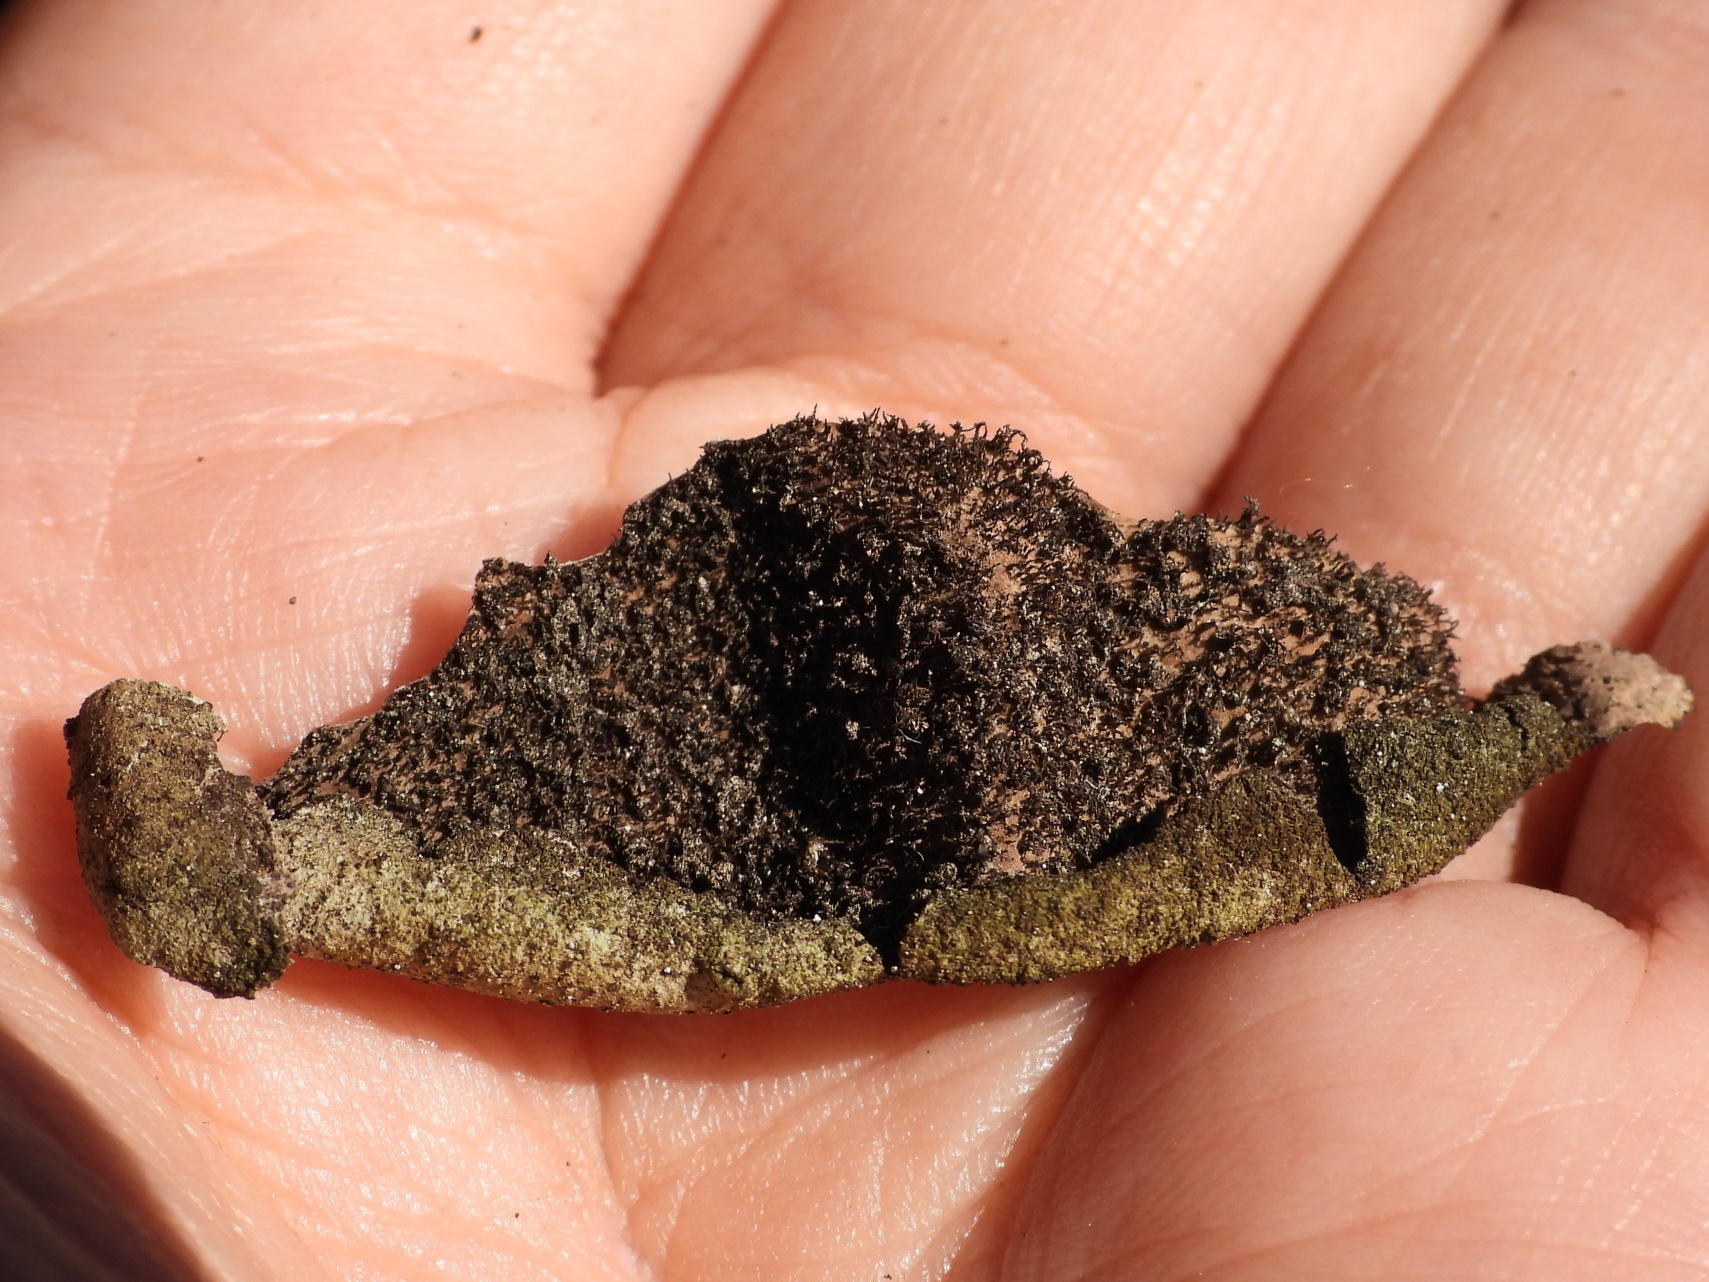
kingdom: Fungi
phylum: Ascomycota
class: Lecanoromycetes
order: Umbilicariales
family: Umbilicariaceae
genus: Umbilicaria
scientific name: Umbilicaria hirsuta
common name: Granulating rocktripe lichen
